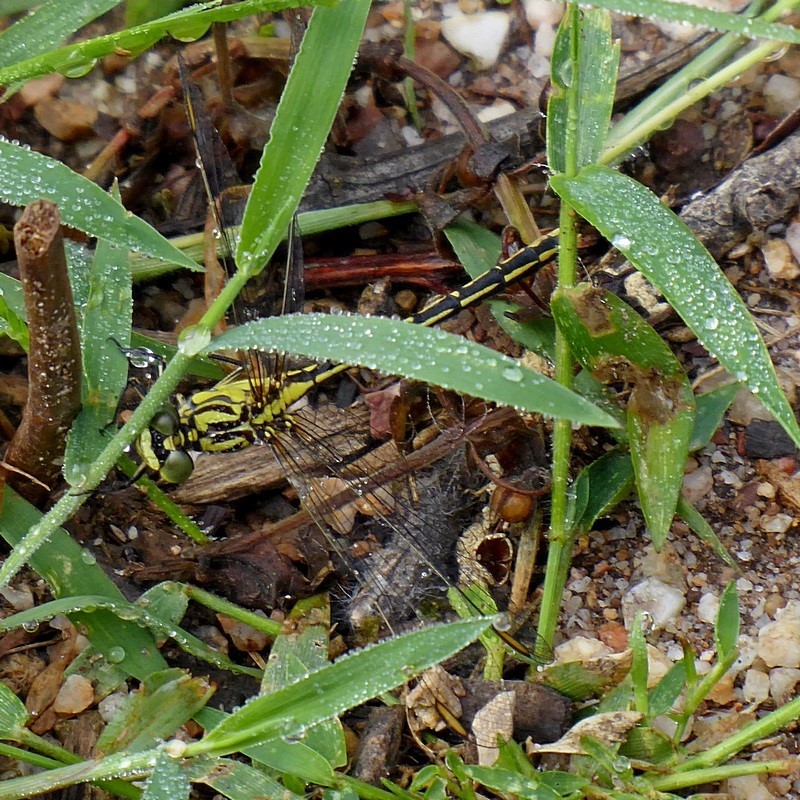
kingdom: Animalia
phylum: Arthropoda
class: Insecta
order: Odonata
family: Gomphidae
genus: Austrogomphus
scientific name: Austrogomphus guerini
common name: Yellow-striped hunter
